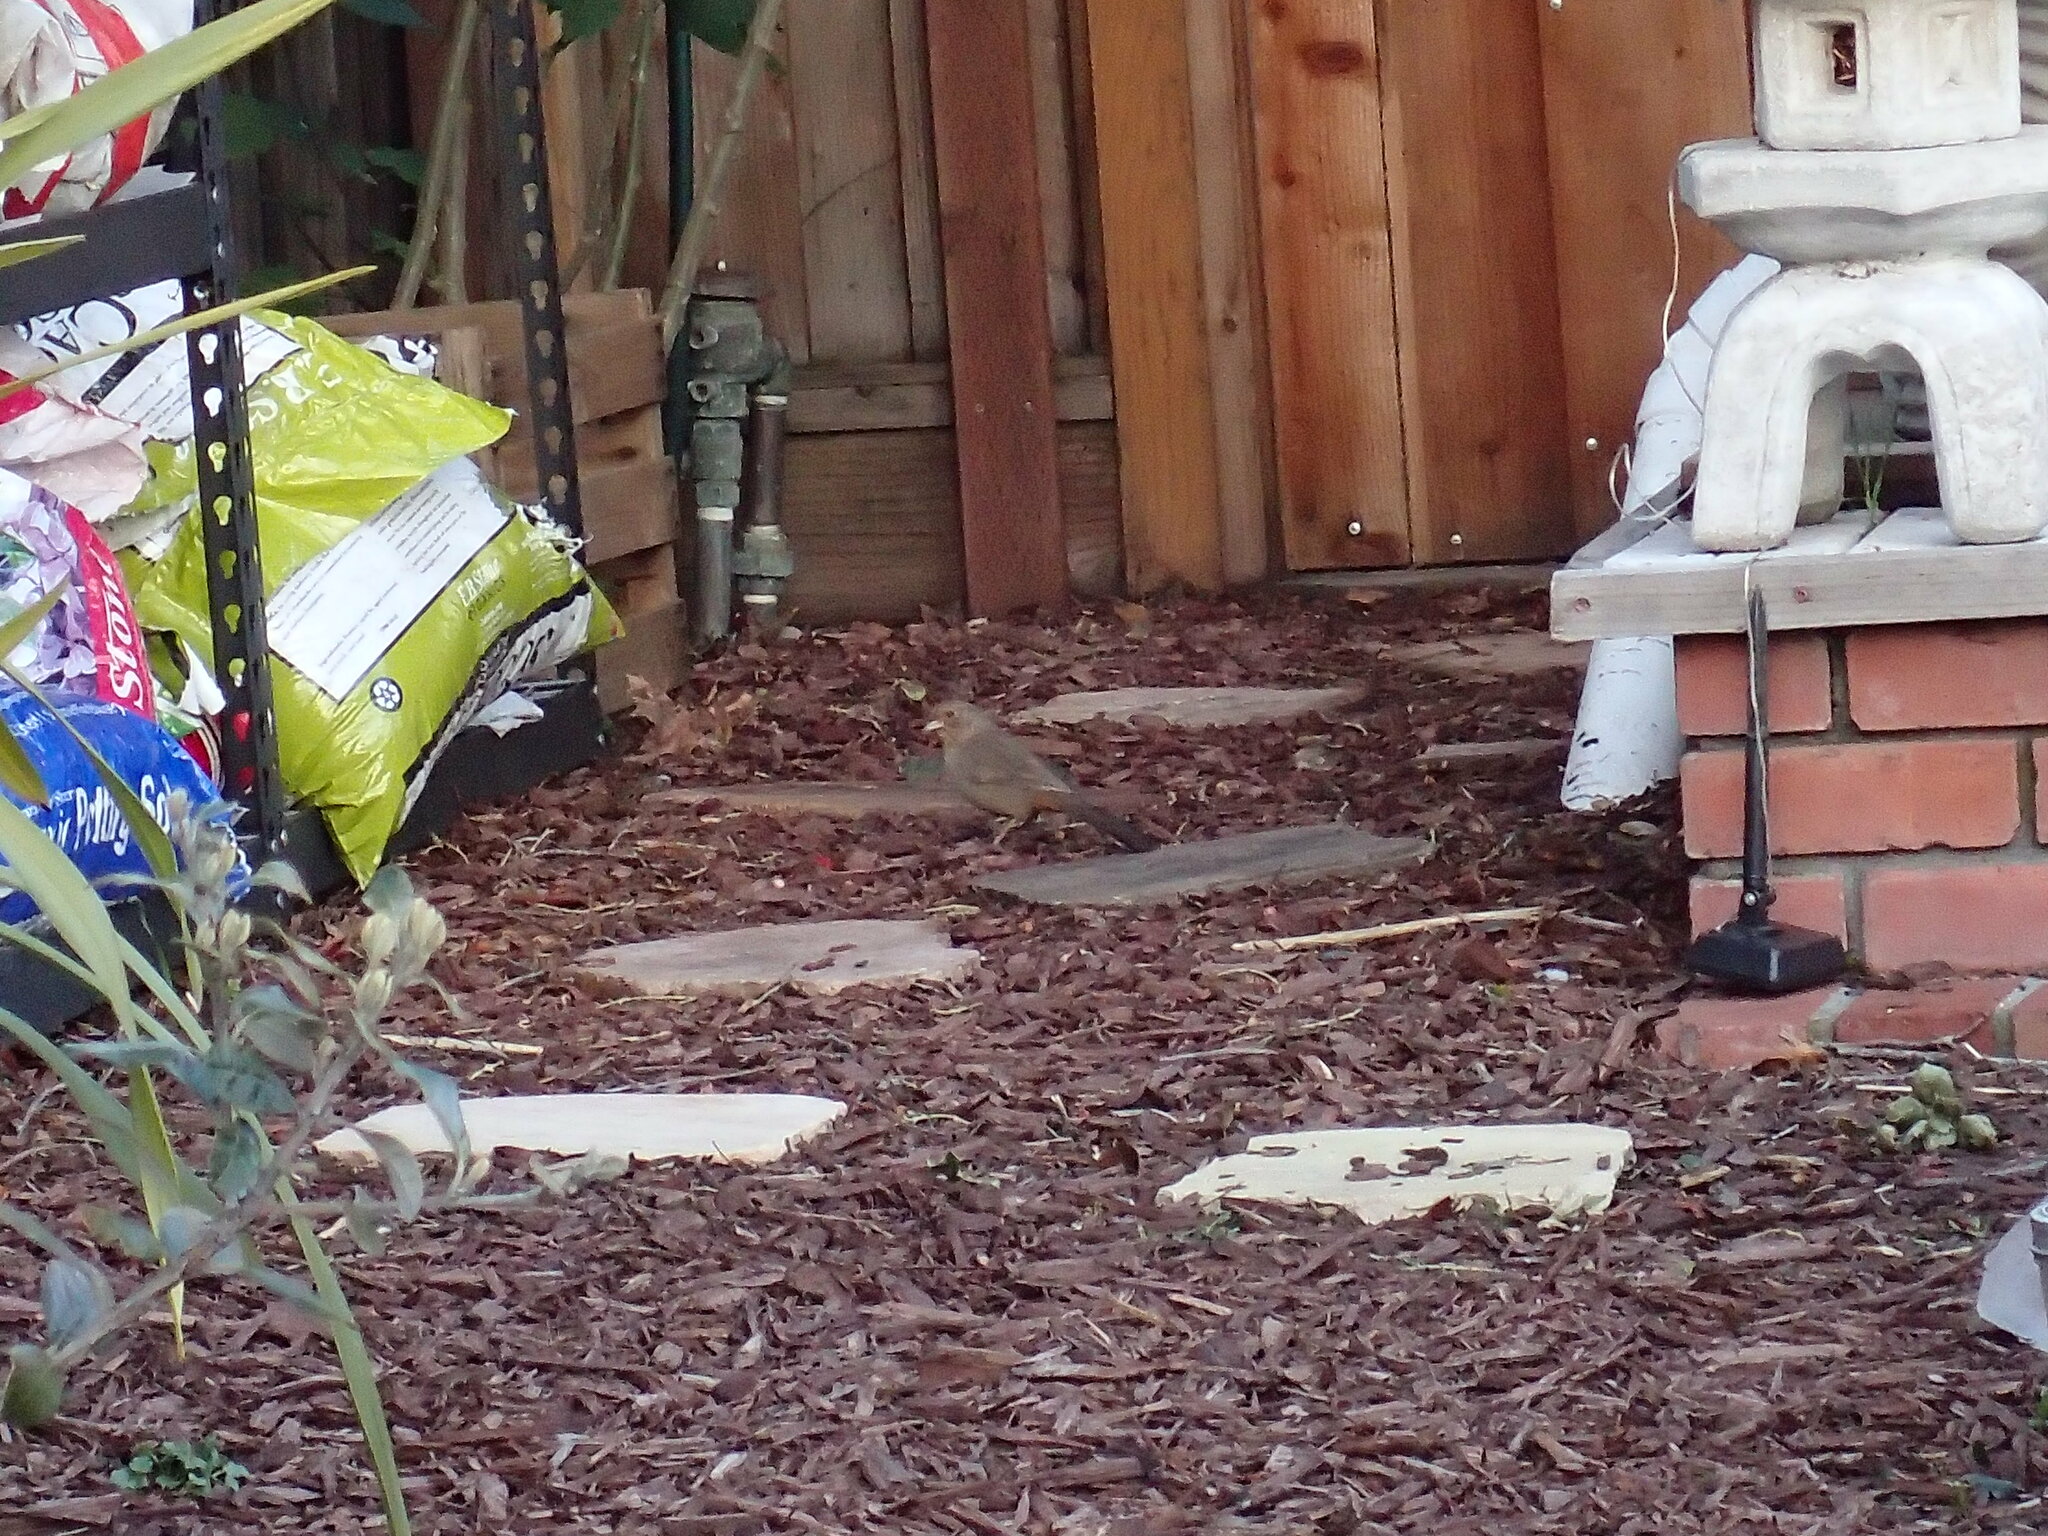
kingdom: Animalia
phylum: Chordata
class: Aves
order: Passeriformes
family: Passerellidae
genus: Melozone
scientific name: Melozone crissalis
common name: California towhee
